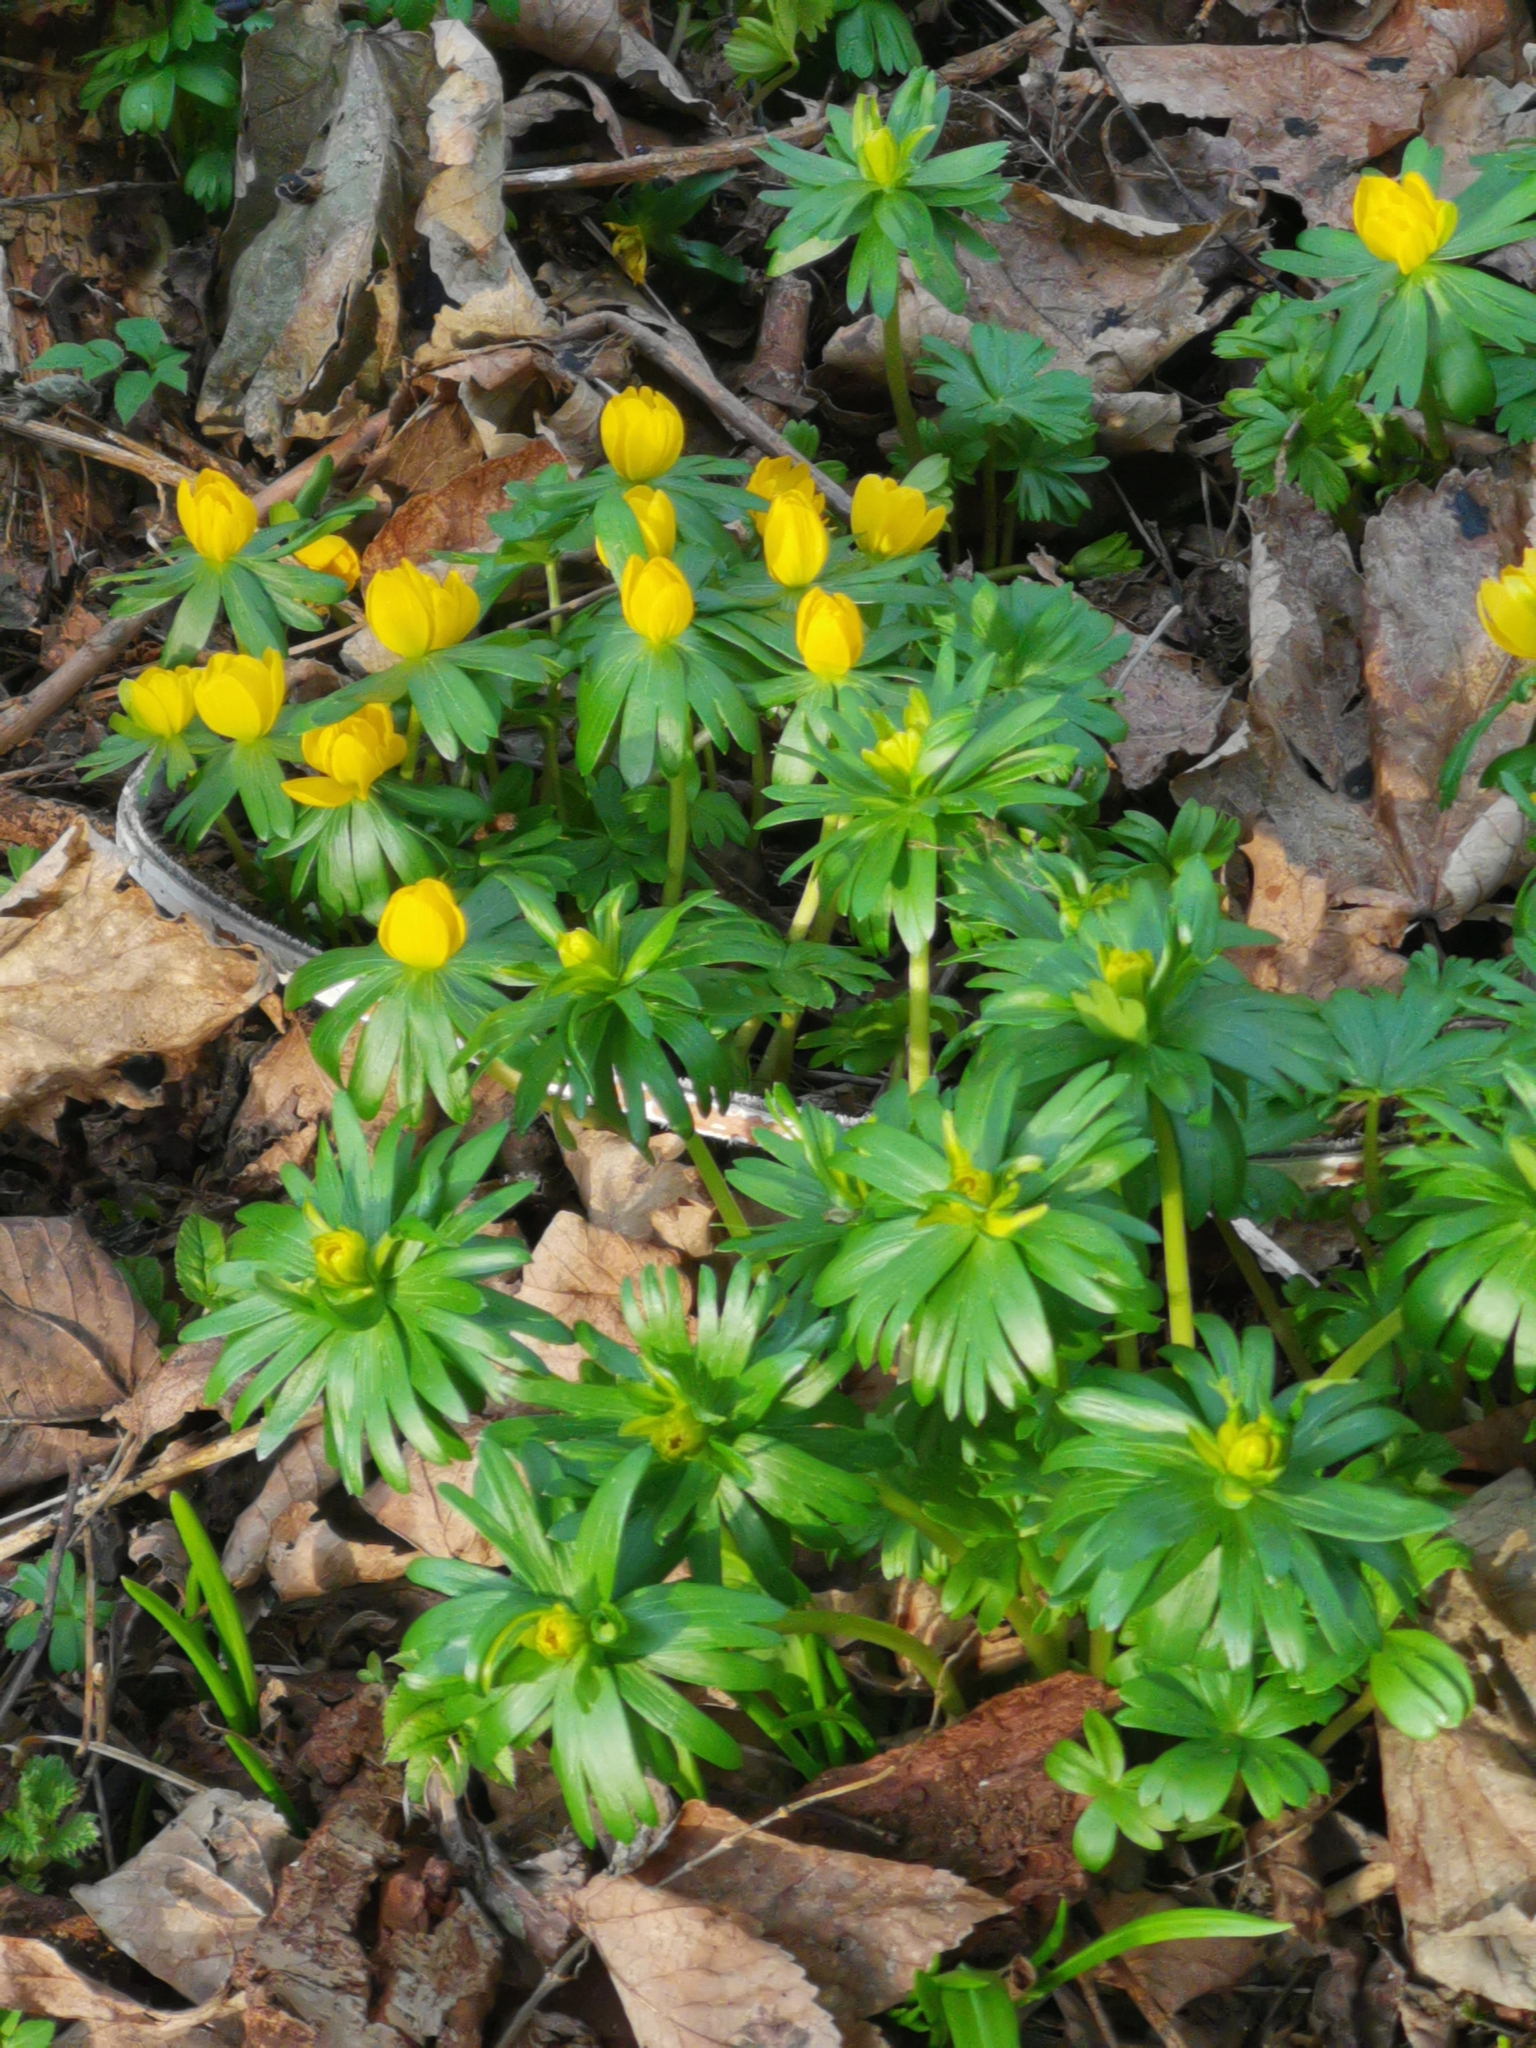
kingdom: Plantae
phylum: Tracheophyta
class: Magnoliopsida
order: Ranunculales
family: Ranunculaceae
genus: Eranthis
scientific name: Eranthis hyemalis
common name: Winter aconite
